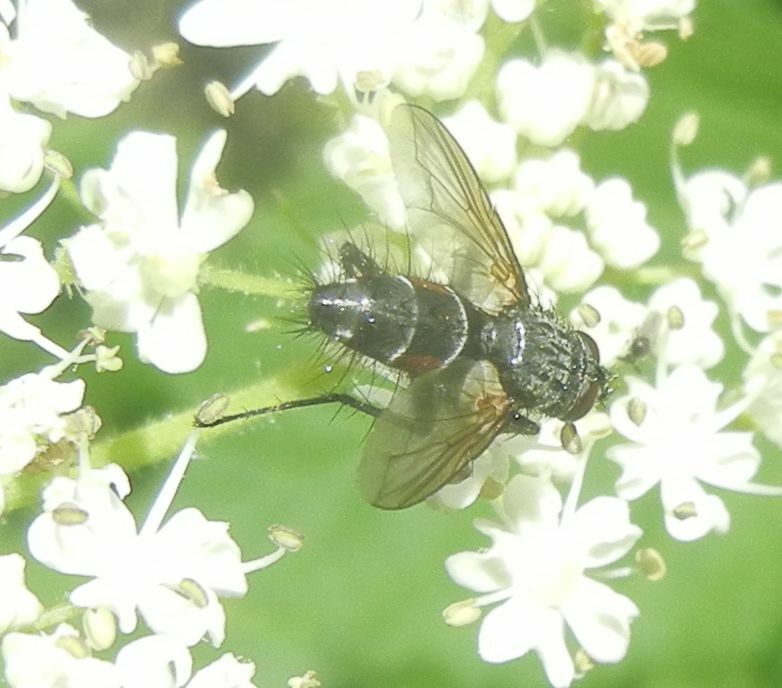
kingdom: Animalia
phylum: Arthropoda
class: Insecta
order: Diptera
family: Tachinidae
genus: Eriothrix
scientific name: Eriothrix rufomaculatus
